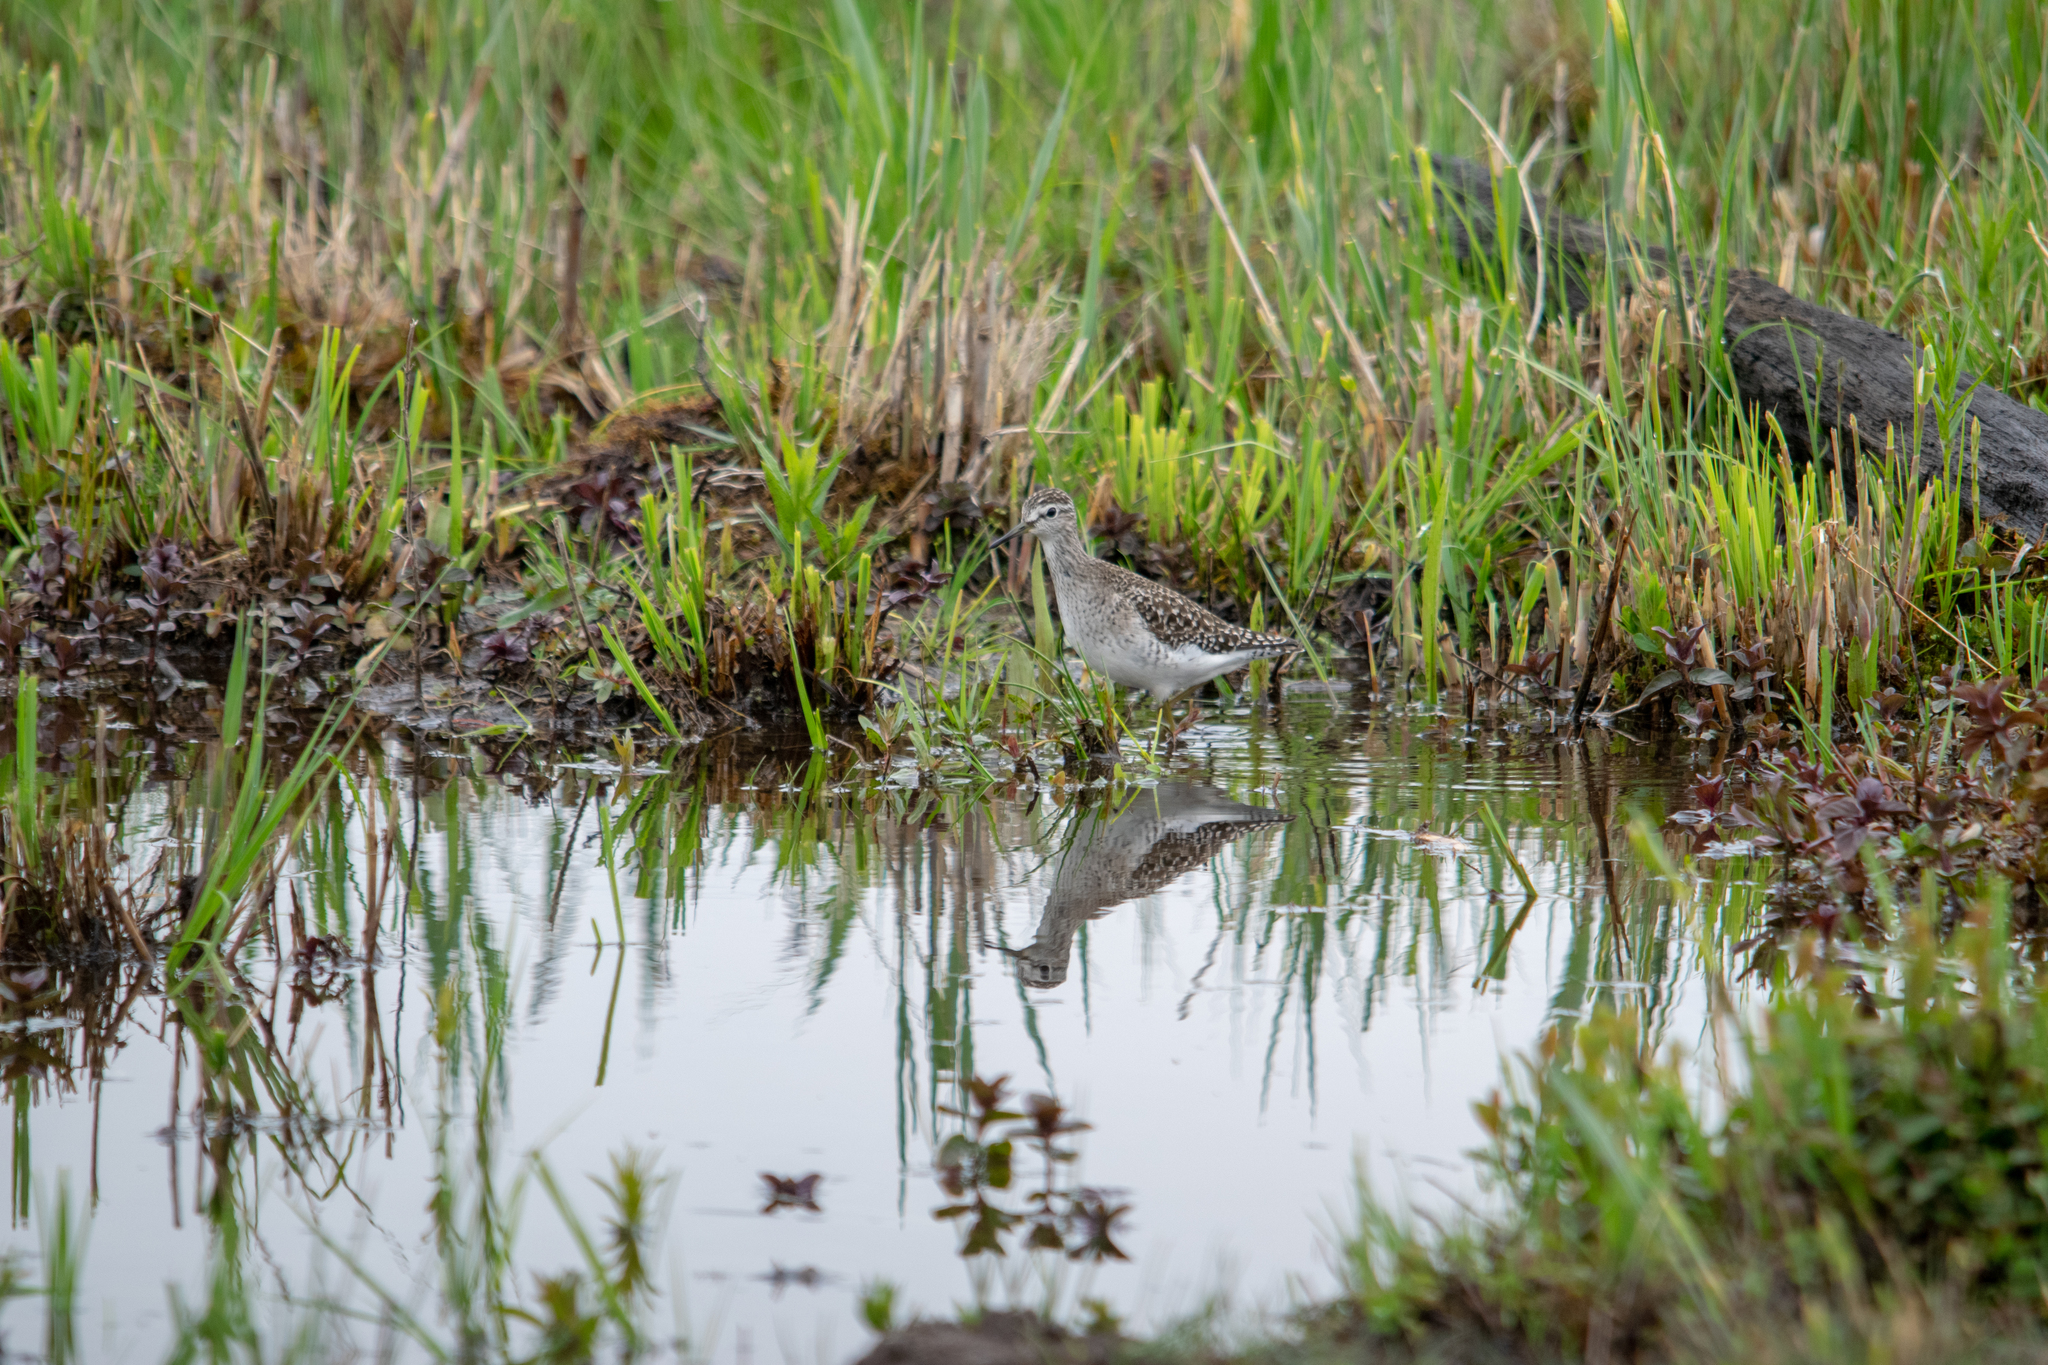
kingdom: Animalia
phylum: Chordata
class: Aves
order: Charadriiformes
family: Scolopacidae
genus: Tringa
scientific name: Tringa glareola
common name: Wood sandpiper
